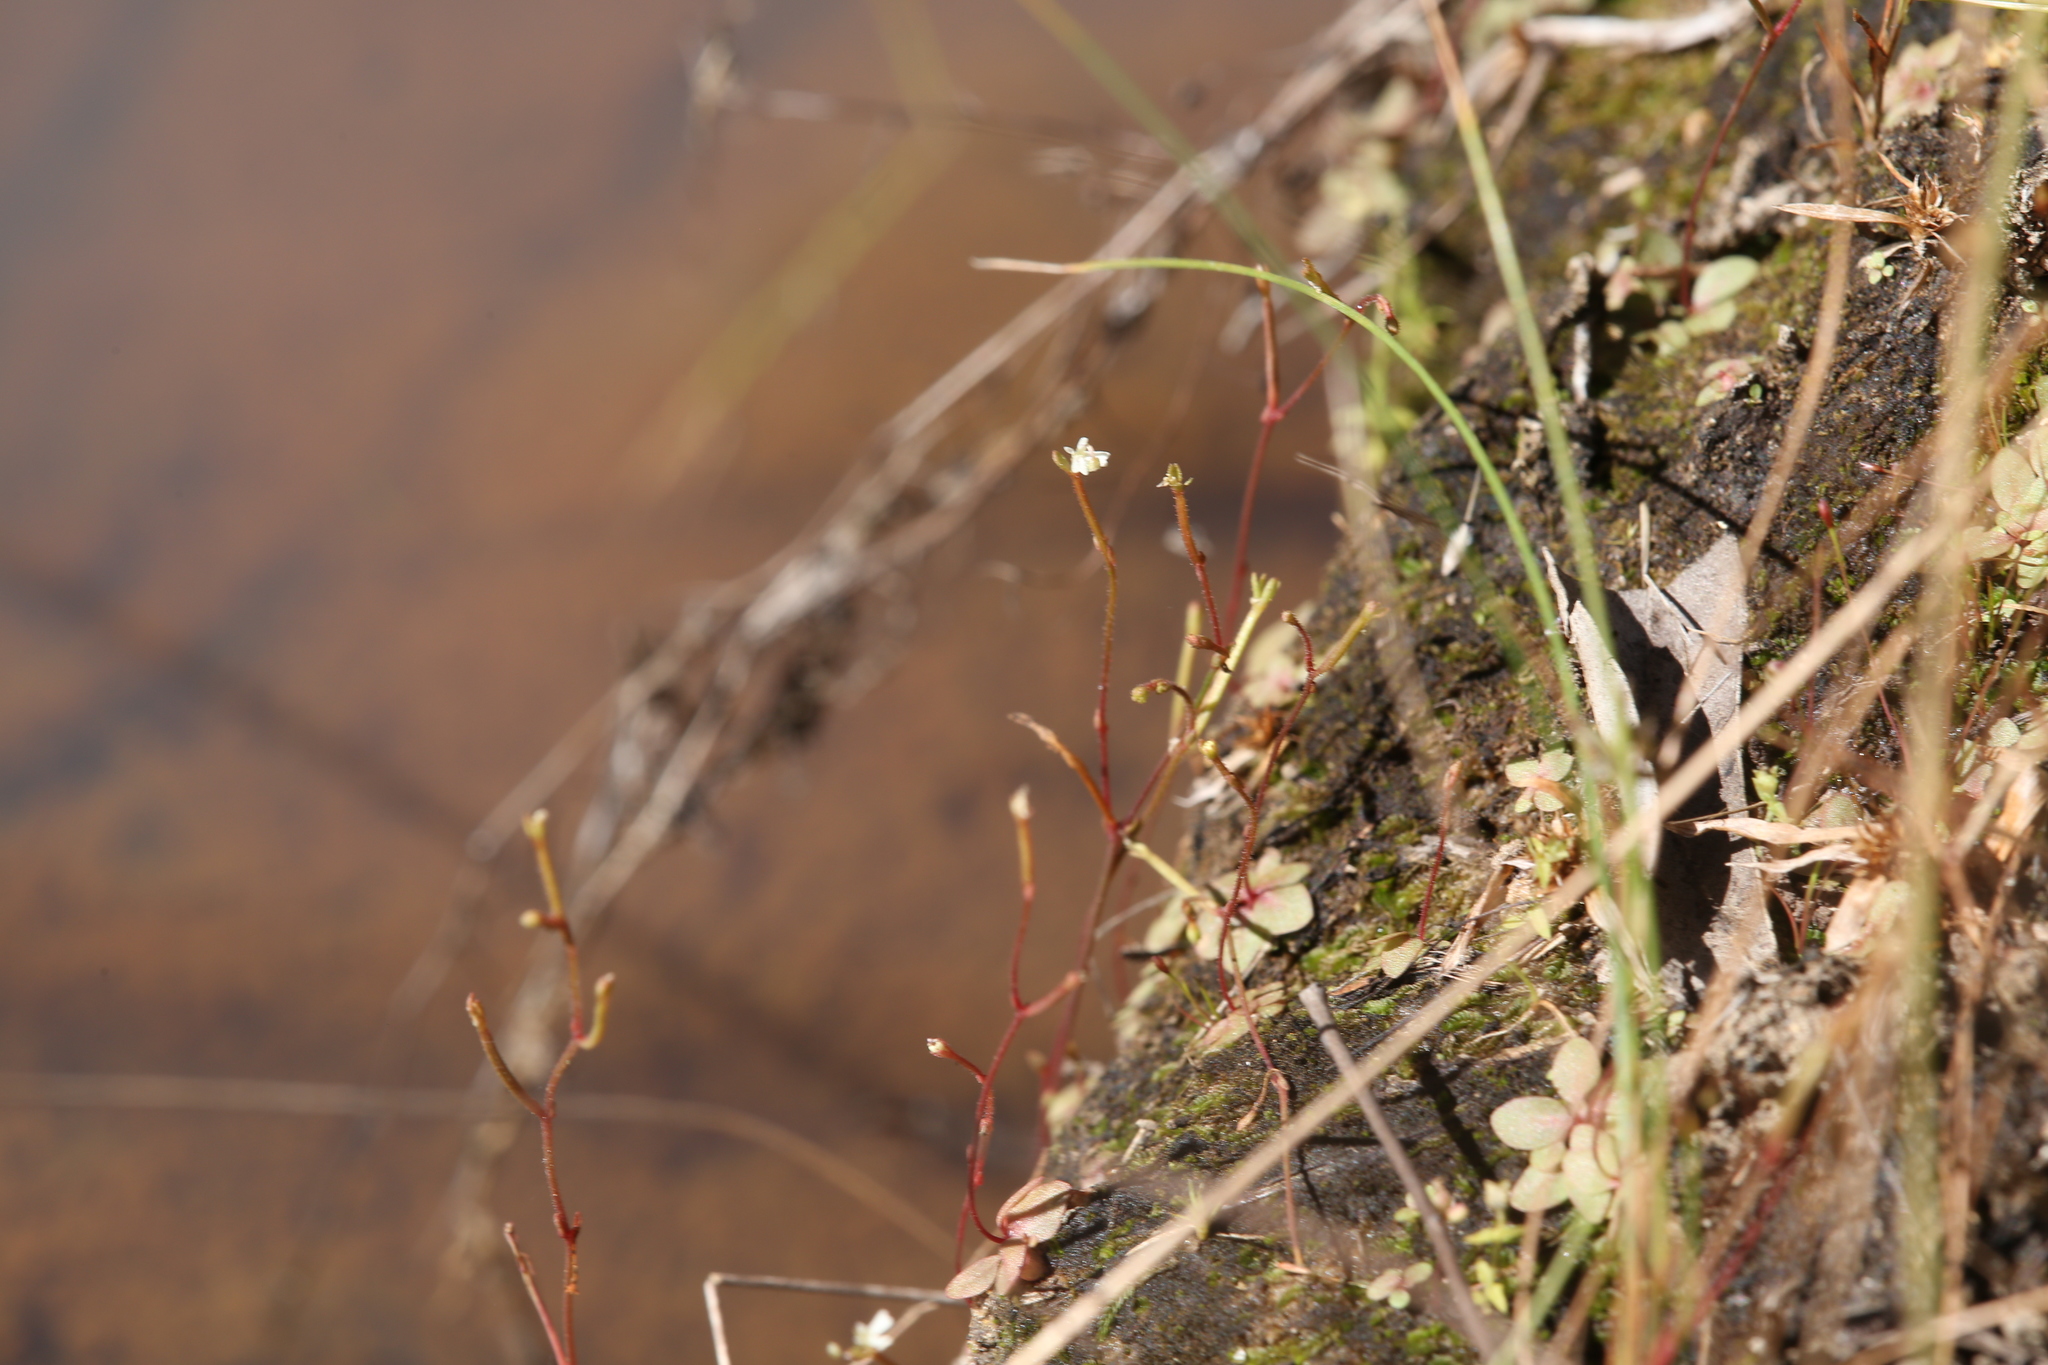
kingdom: Plantae
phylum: Tracheophyta
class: Magnoliopsida
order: Asterales
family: Stylidiaceae
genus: Stylidium
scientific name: Stylidium tenerum
